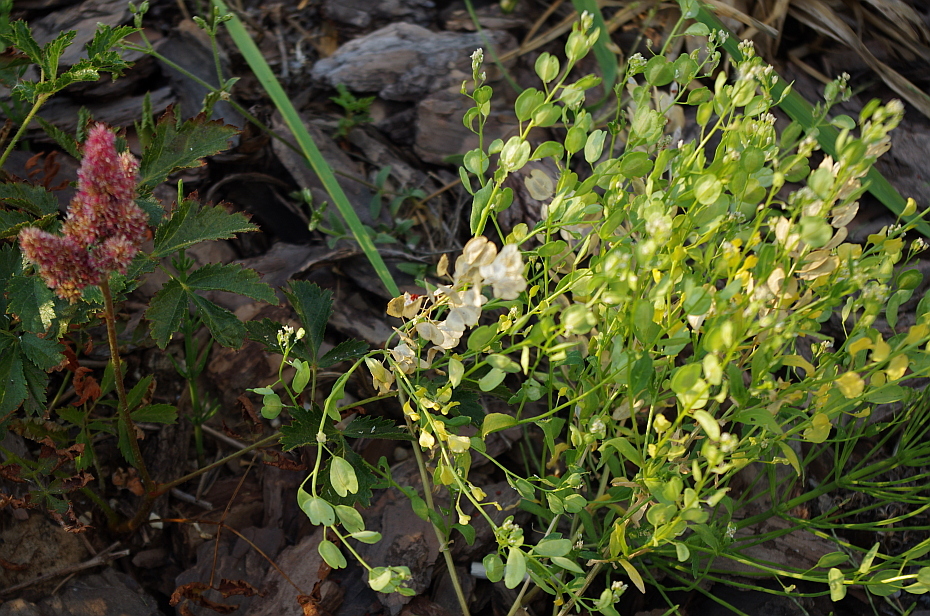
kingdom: Plantae
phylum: Tracheophyta
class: Magnoliopsida
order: Brassicales
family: Brassicaceae
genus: Thlaspi
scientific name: Thlaspi arvense
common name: Field pennycress
